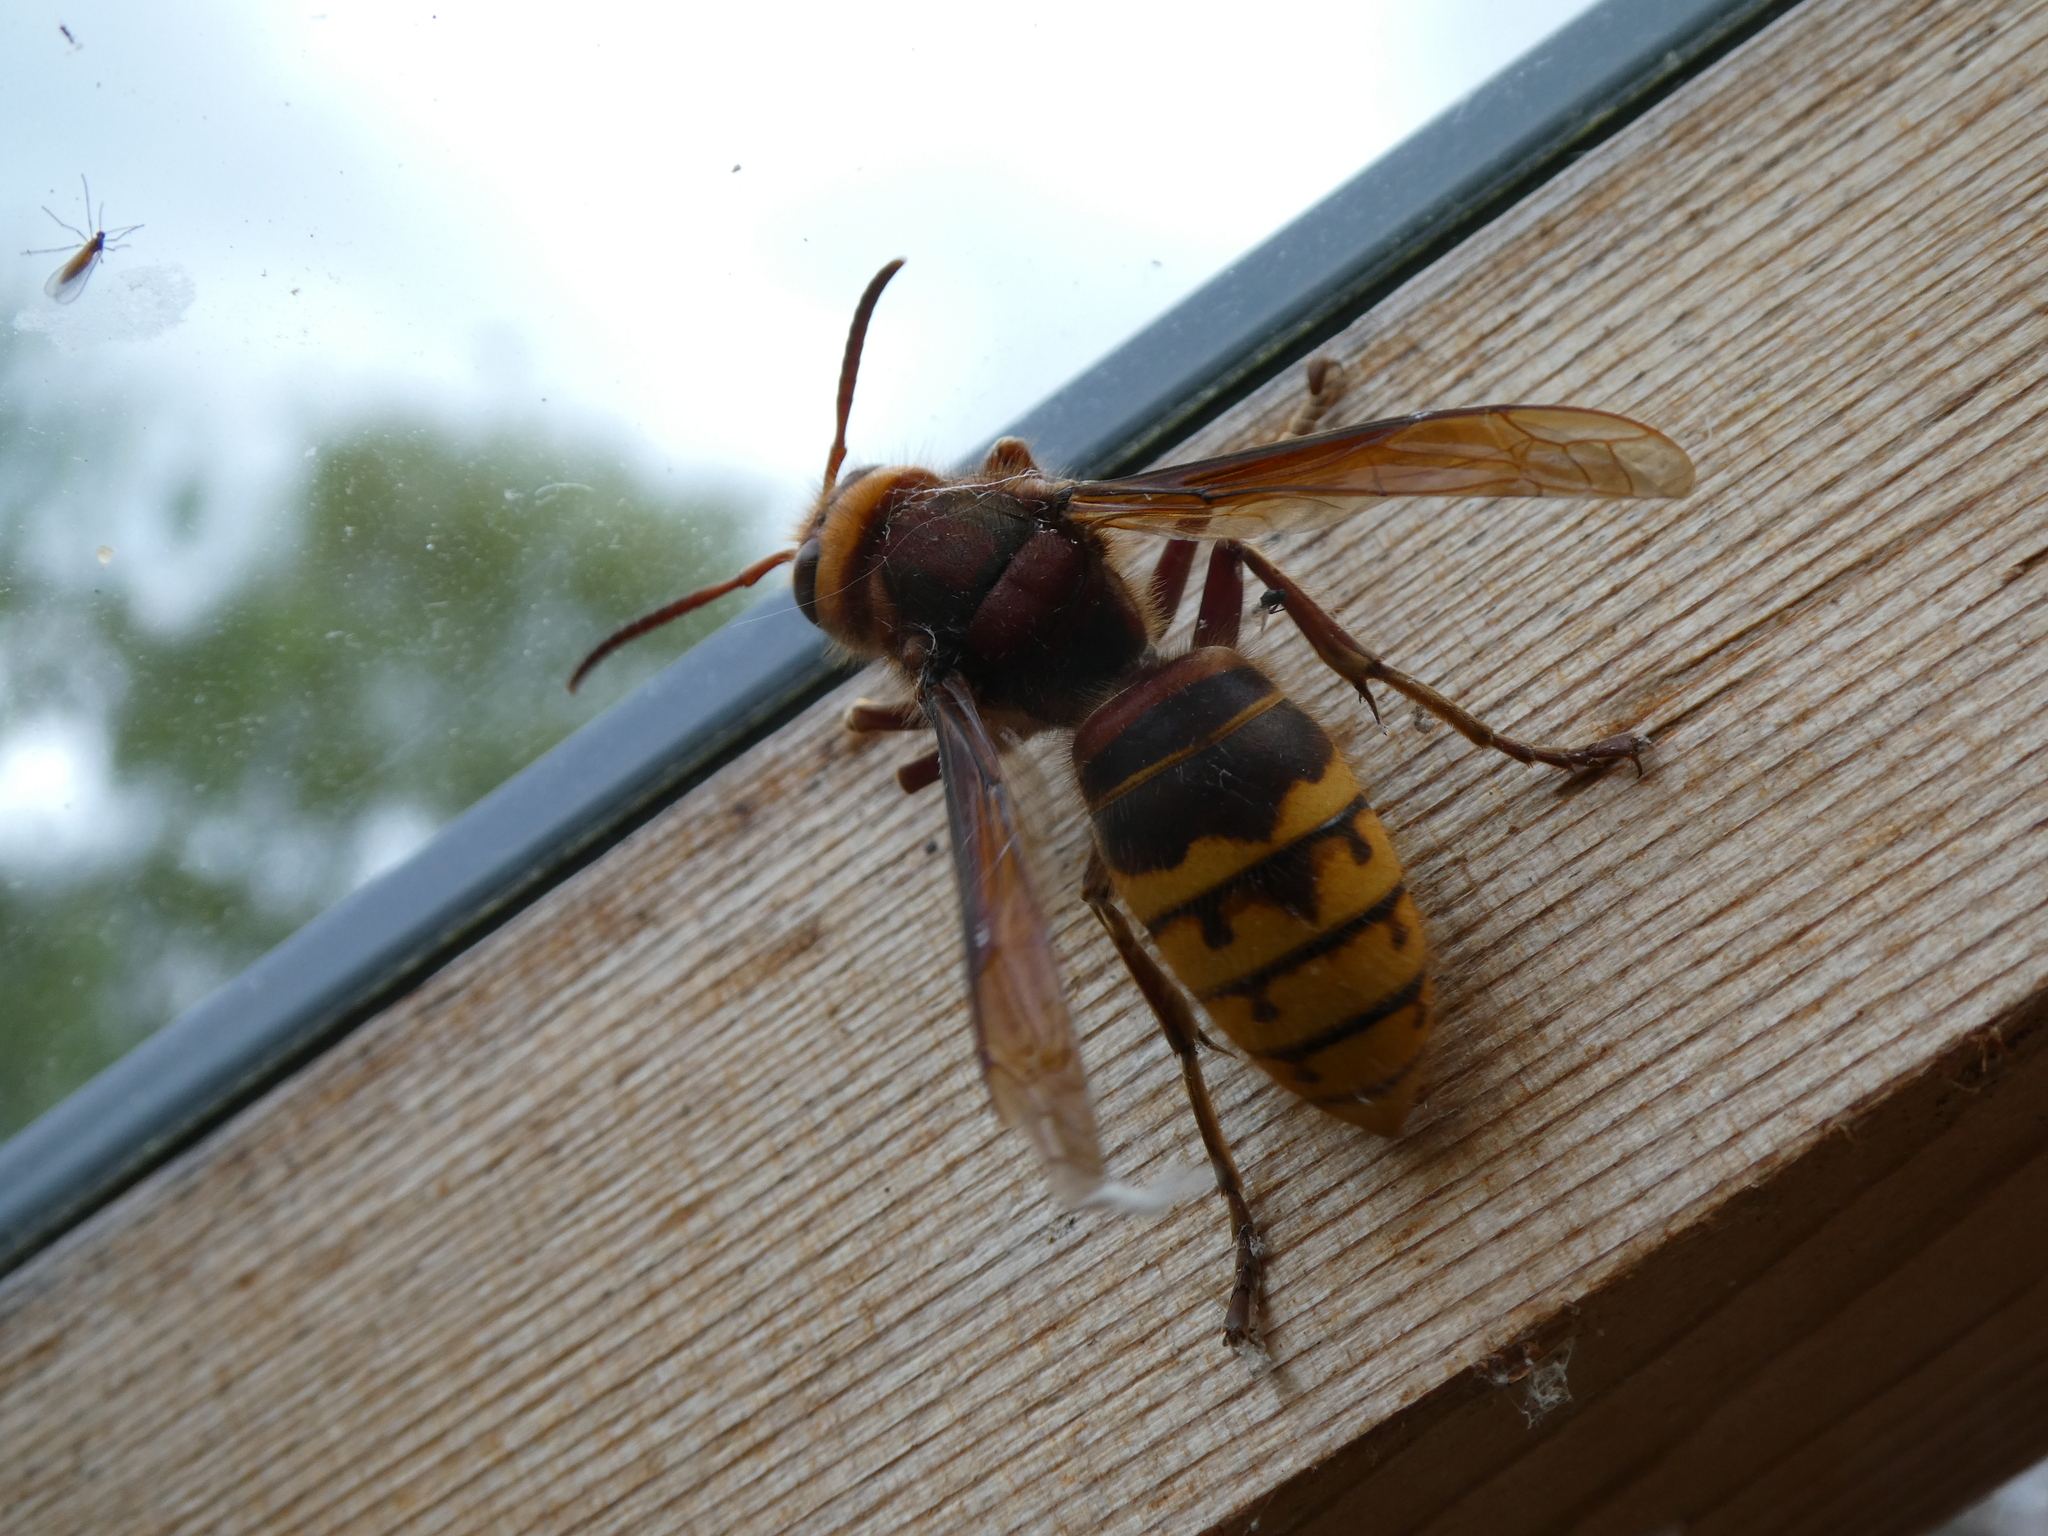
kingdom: Animalia
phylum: Arthropoda
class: Insecta
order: Hymenoptera
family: Vespidae
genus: Vespa
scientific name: Vespa crabro
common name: Hornet
